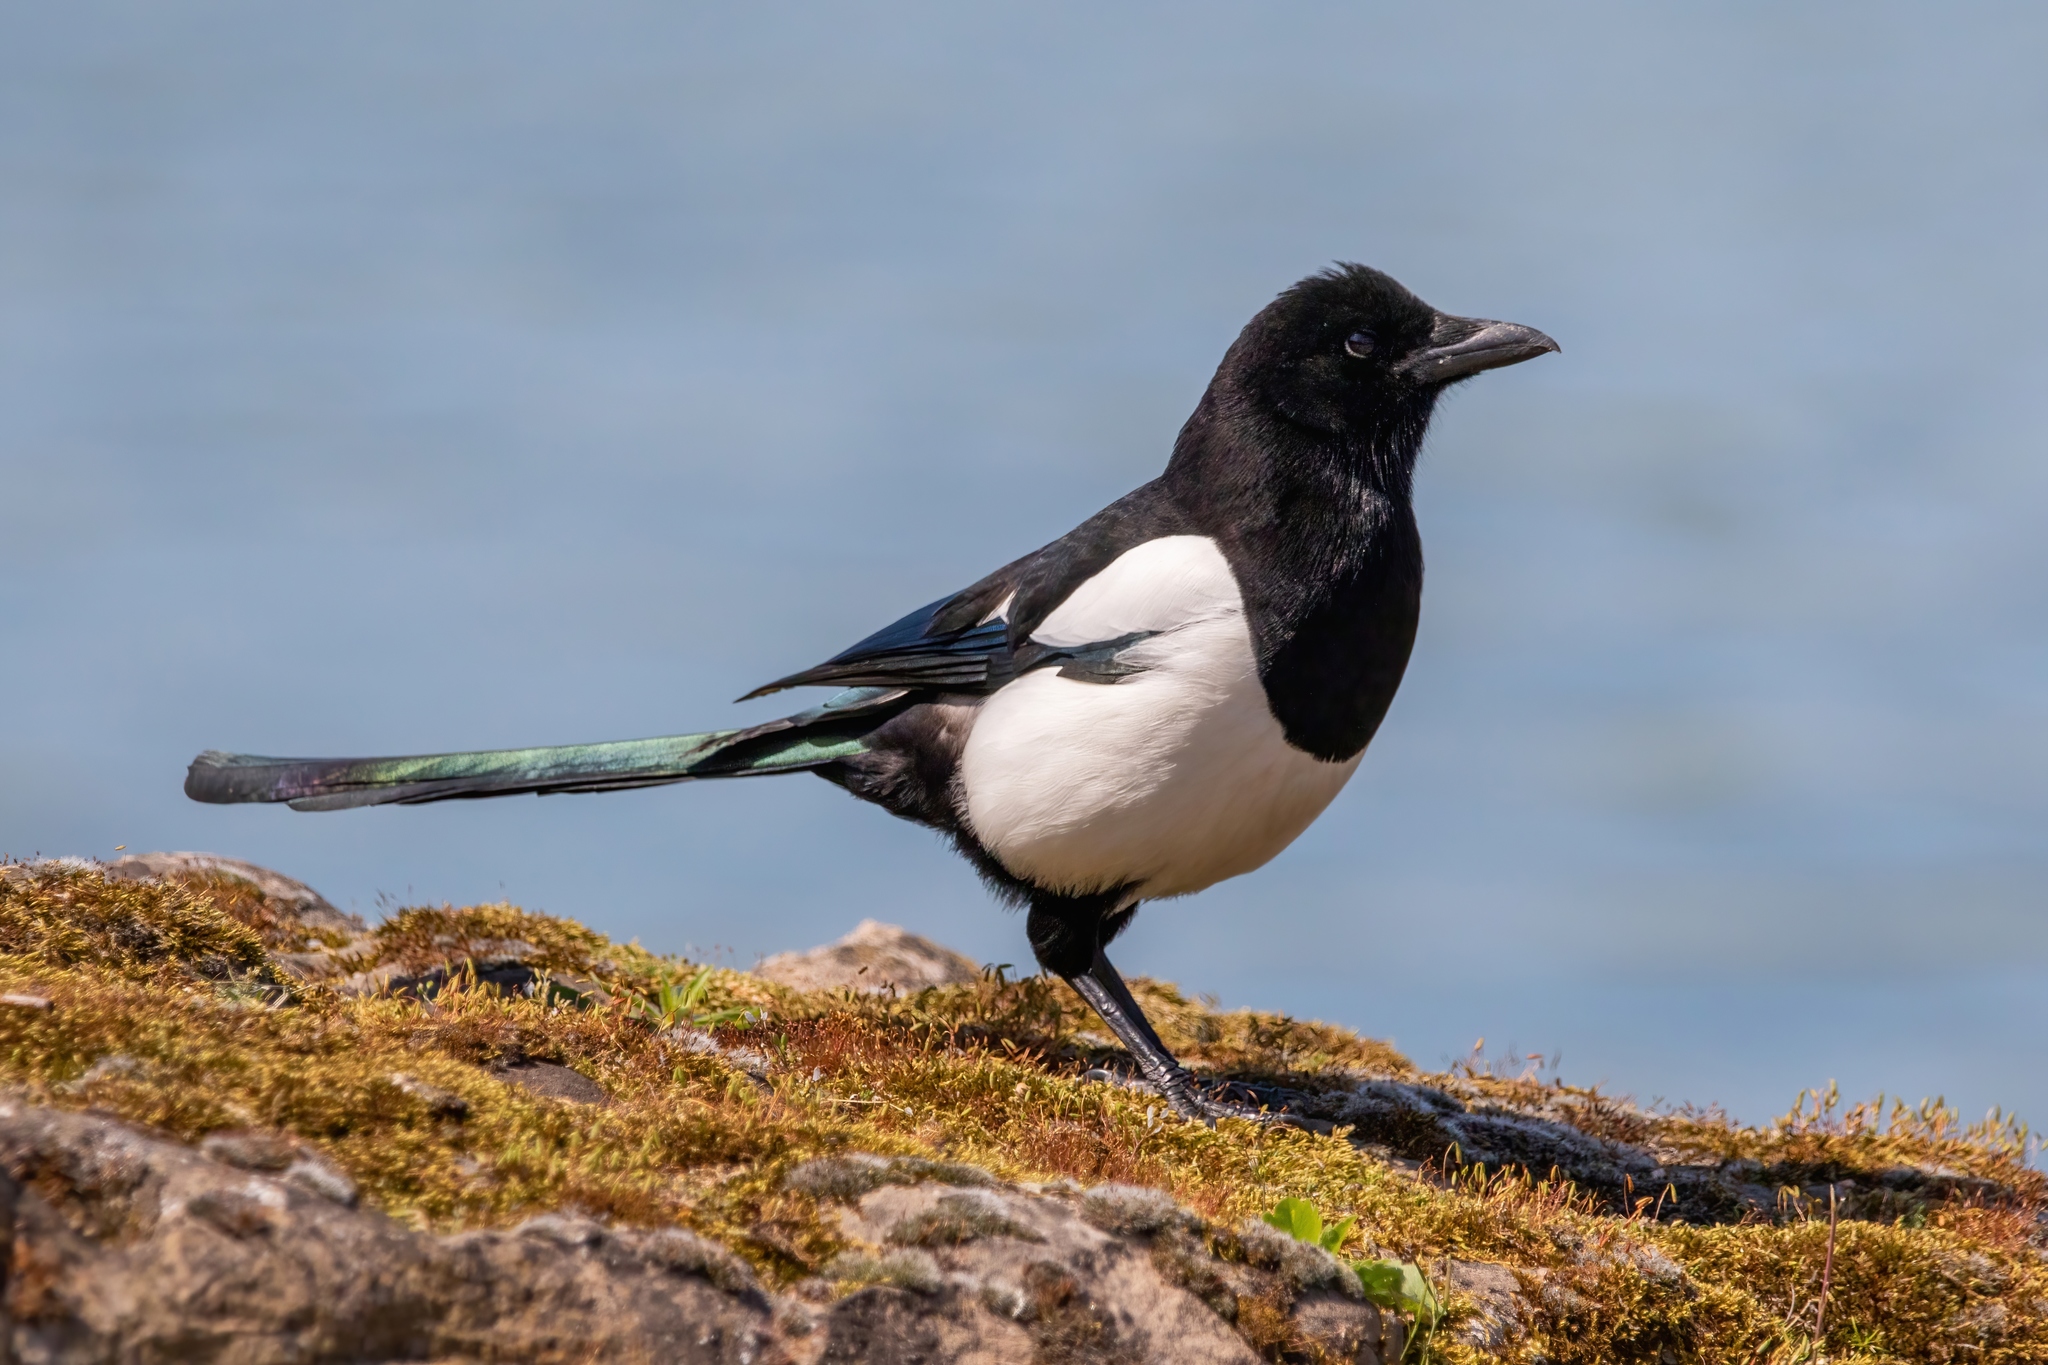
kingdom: Animalia
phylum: Chordata
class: Aves
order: Passeriformes
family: Corvidae
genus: Pica
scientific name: Pica pica
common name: Eurasian magpie
